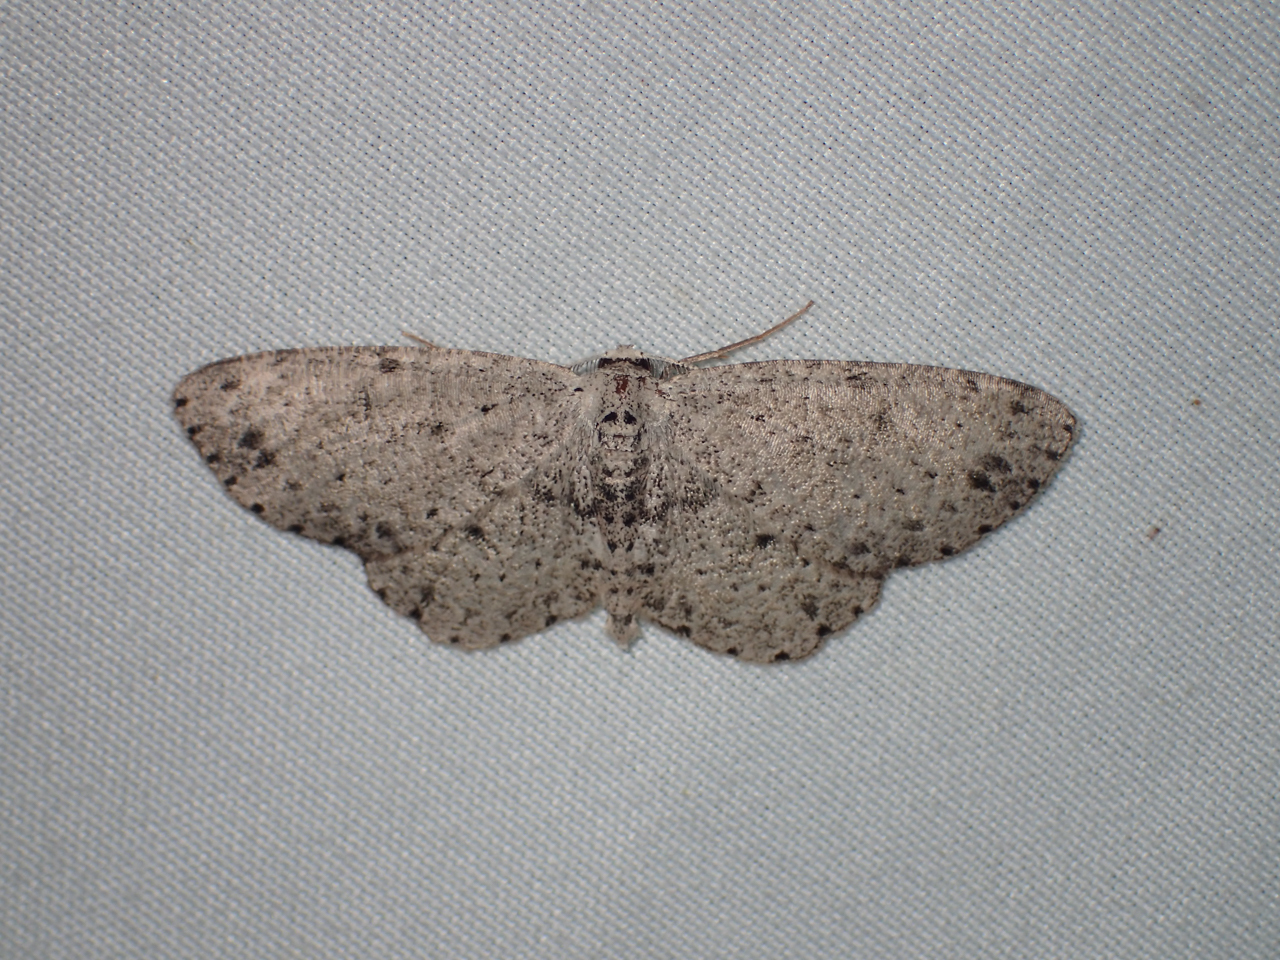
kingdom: Animalia
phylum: Arthropoda
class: Insecta
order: Lepidoptera
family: Geometridae
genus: Glena
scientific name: Glena cribrataria
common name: Dotted gray
